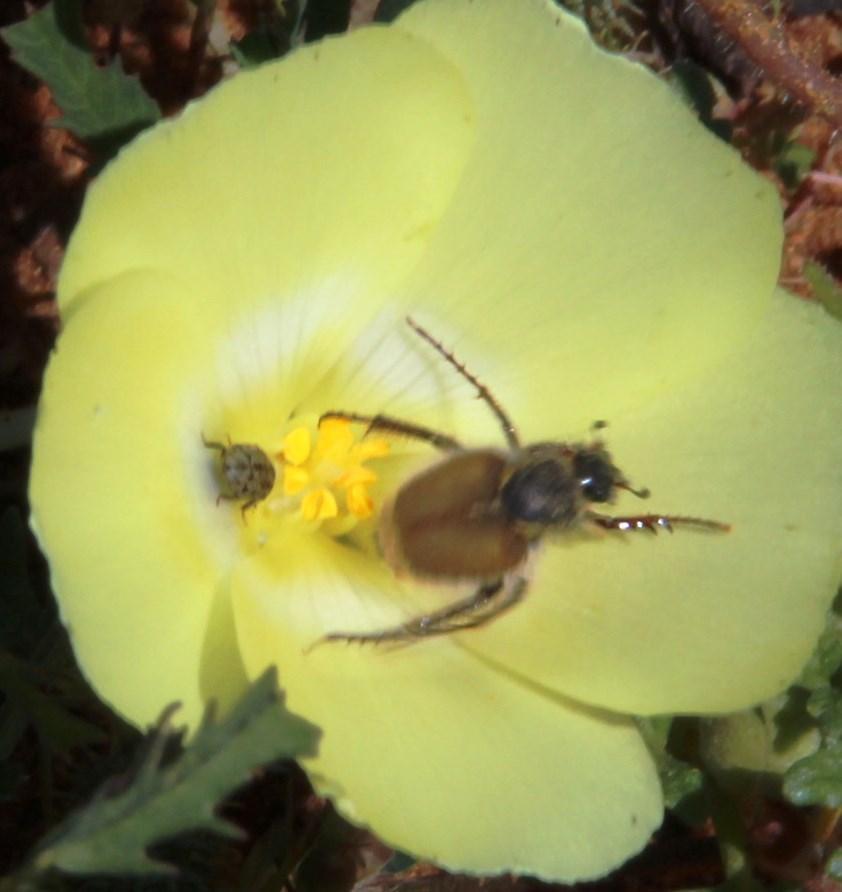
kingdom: Plantae
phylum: Tracheophyta
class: Magnoliopsida
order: Malvales
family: Neuradaceae
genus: Grielum
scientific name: Grielum humifusum
